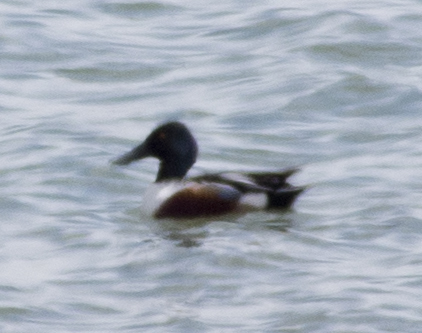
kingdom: Animalia
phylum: Chordata
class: Aves
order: Anseriformes
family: Anatidae
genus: Spatula
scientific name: Spatula clypeata
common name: Northern shoveler
